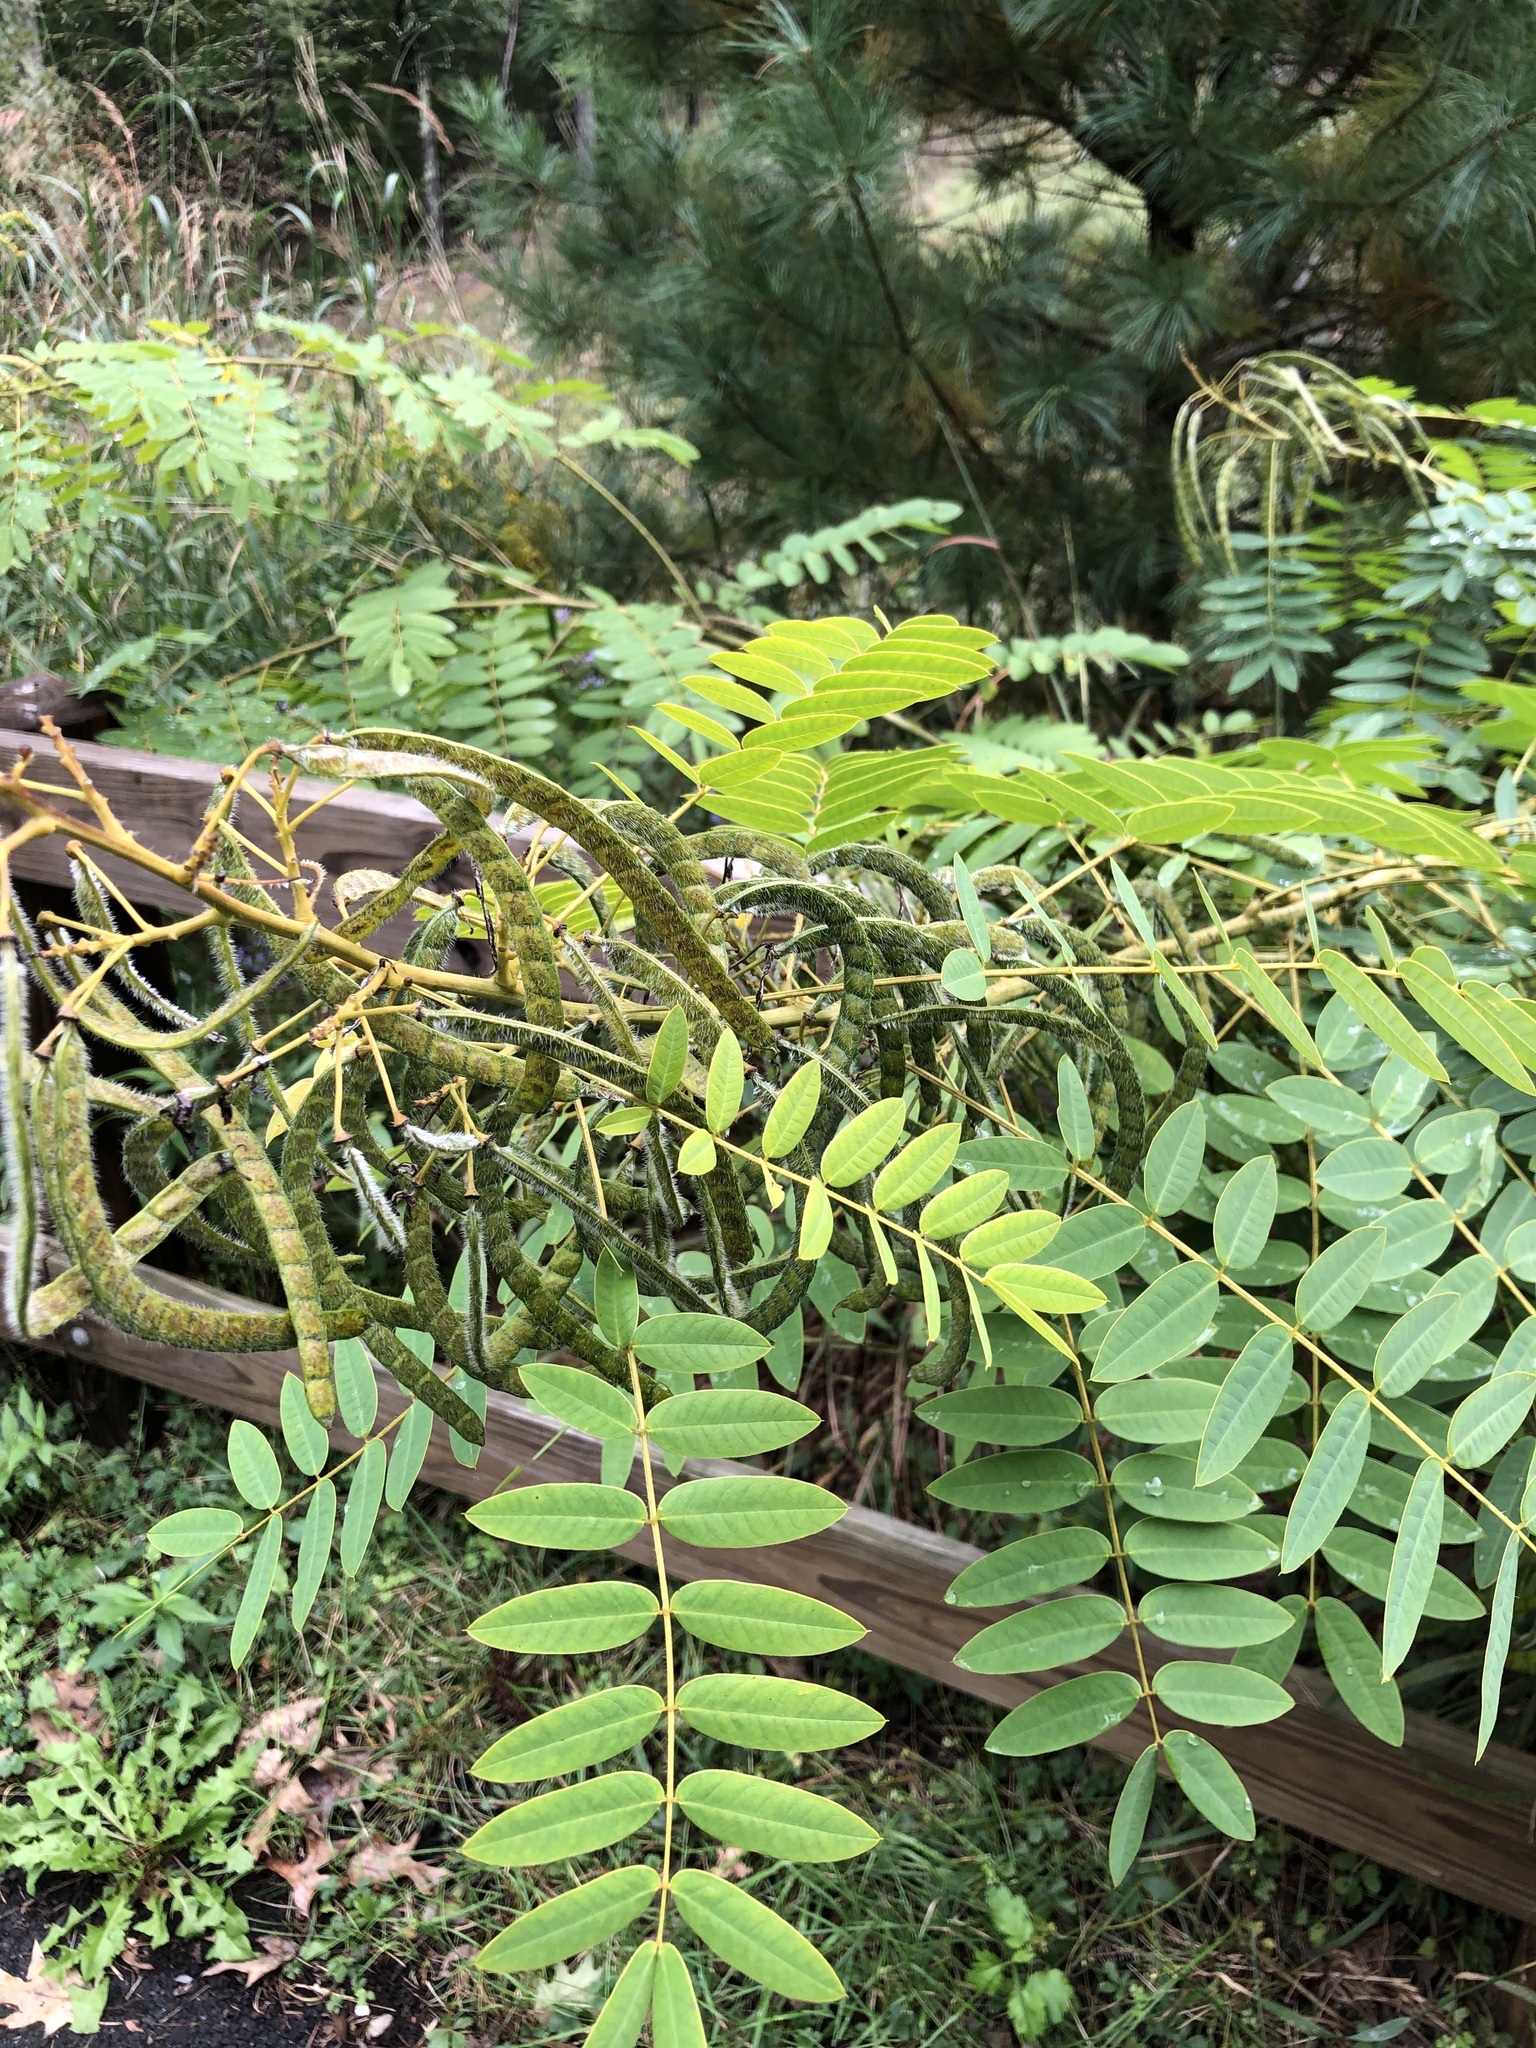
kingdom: Plantae
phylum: Tracheophyta
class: Magnoliopsida
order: Fabales
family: Fabaceae
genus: Senna
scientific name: Senna hebecarpa
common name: Wild senna
